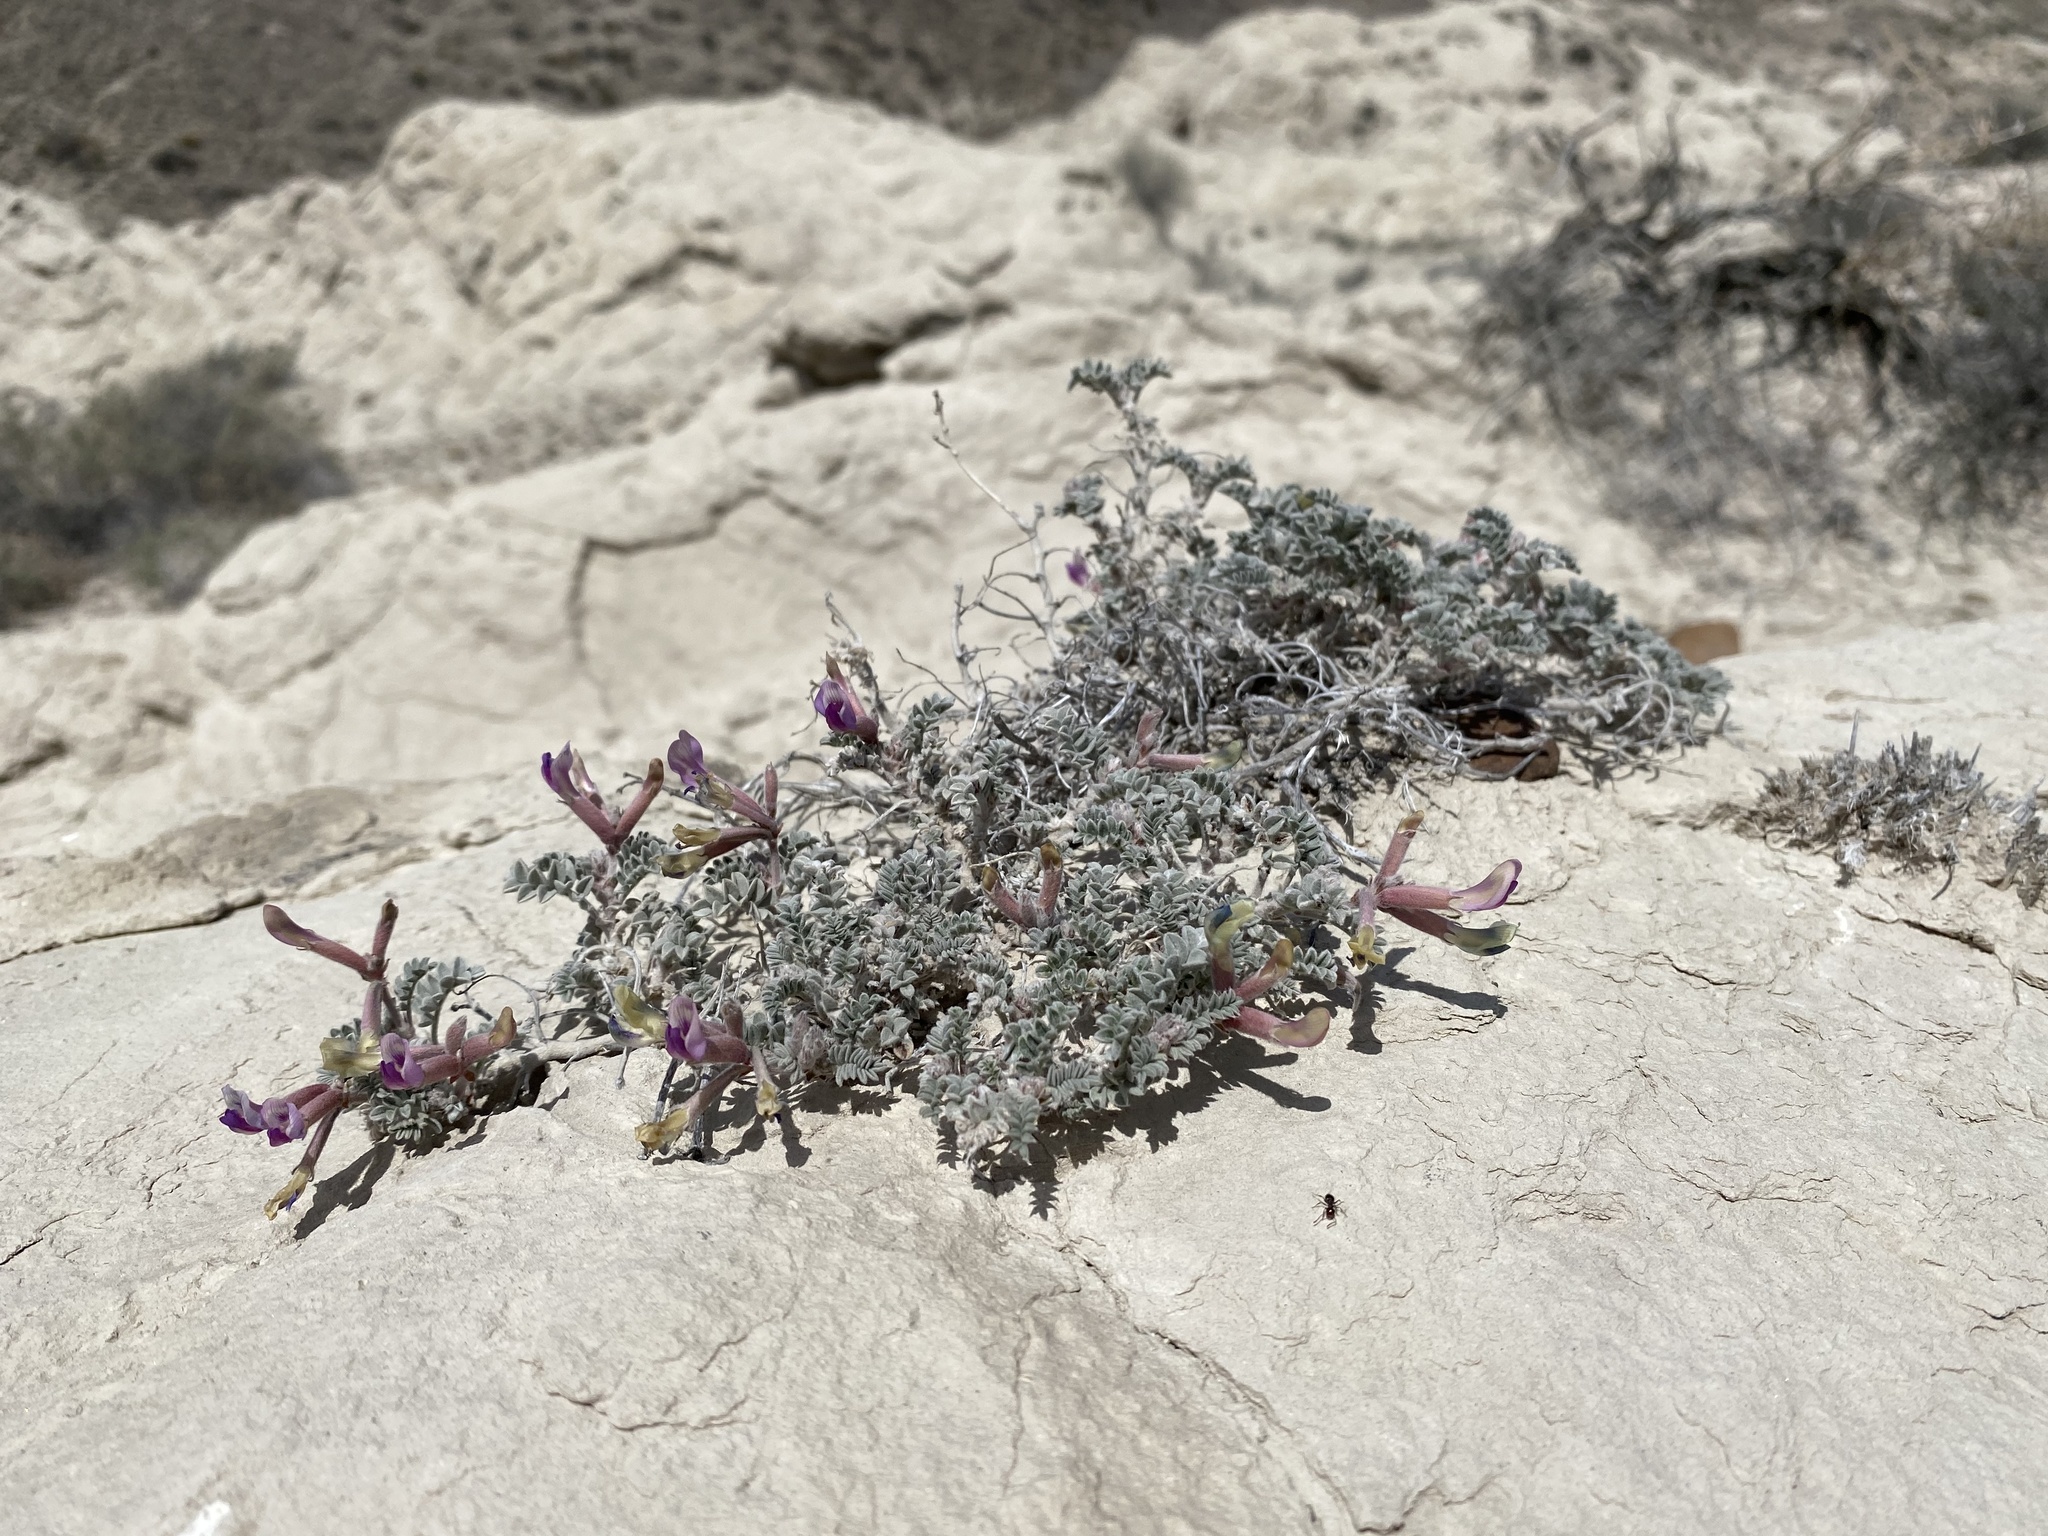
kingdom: Plantae
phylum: Tracheophyta
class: Magnoliopsida
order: Fabales
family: Fabaceae
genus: Astragalus
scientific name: Astragalus nudisiliquus
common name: Cobblestone milk-vetch
